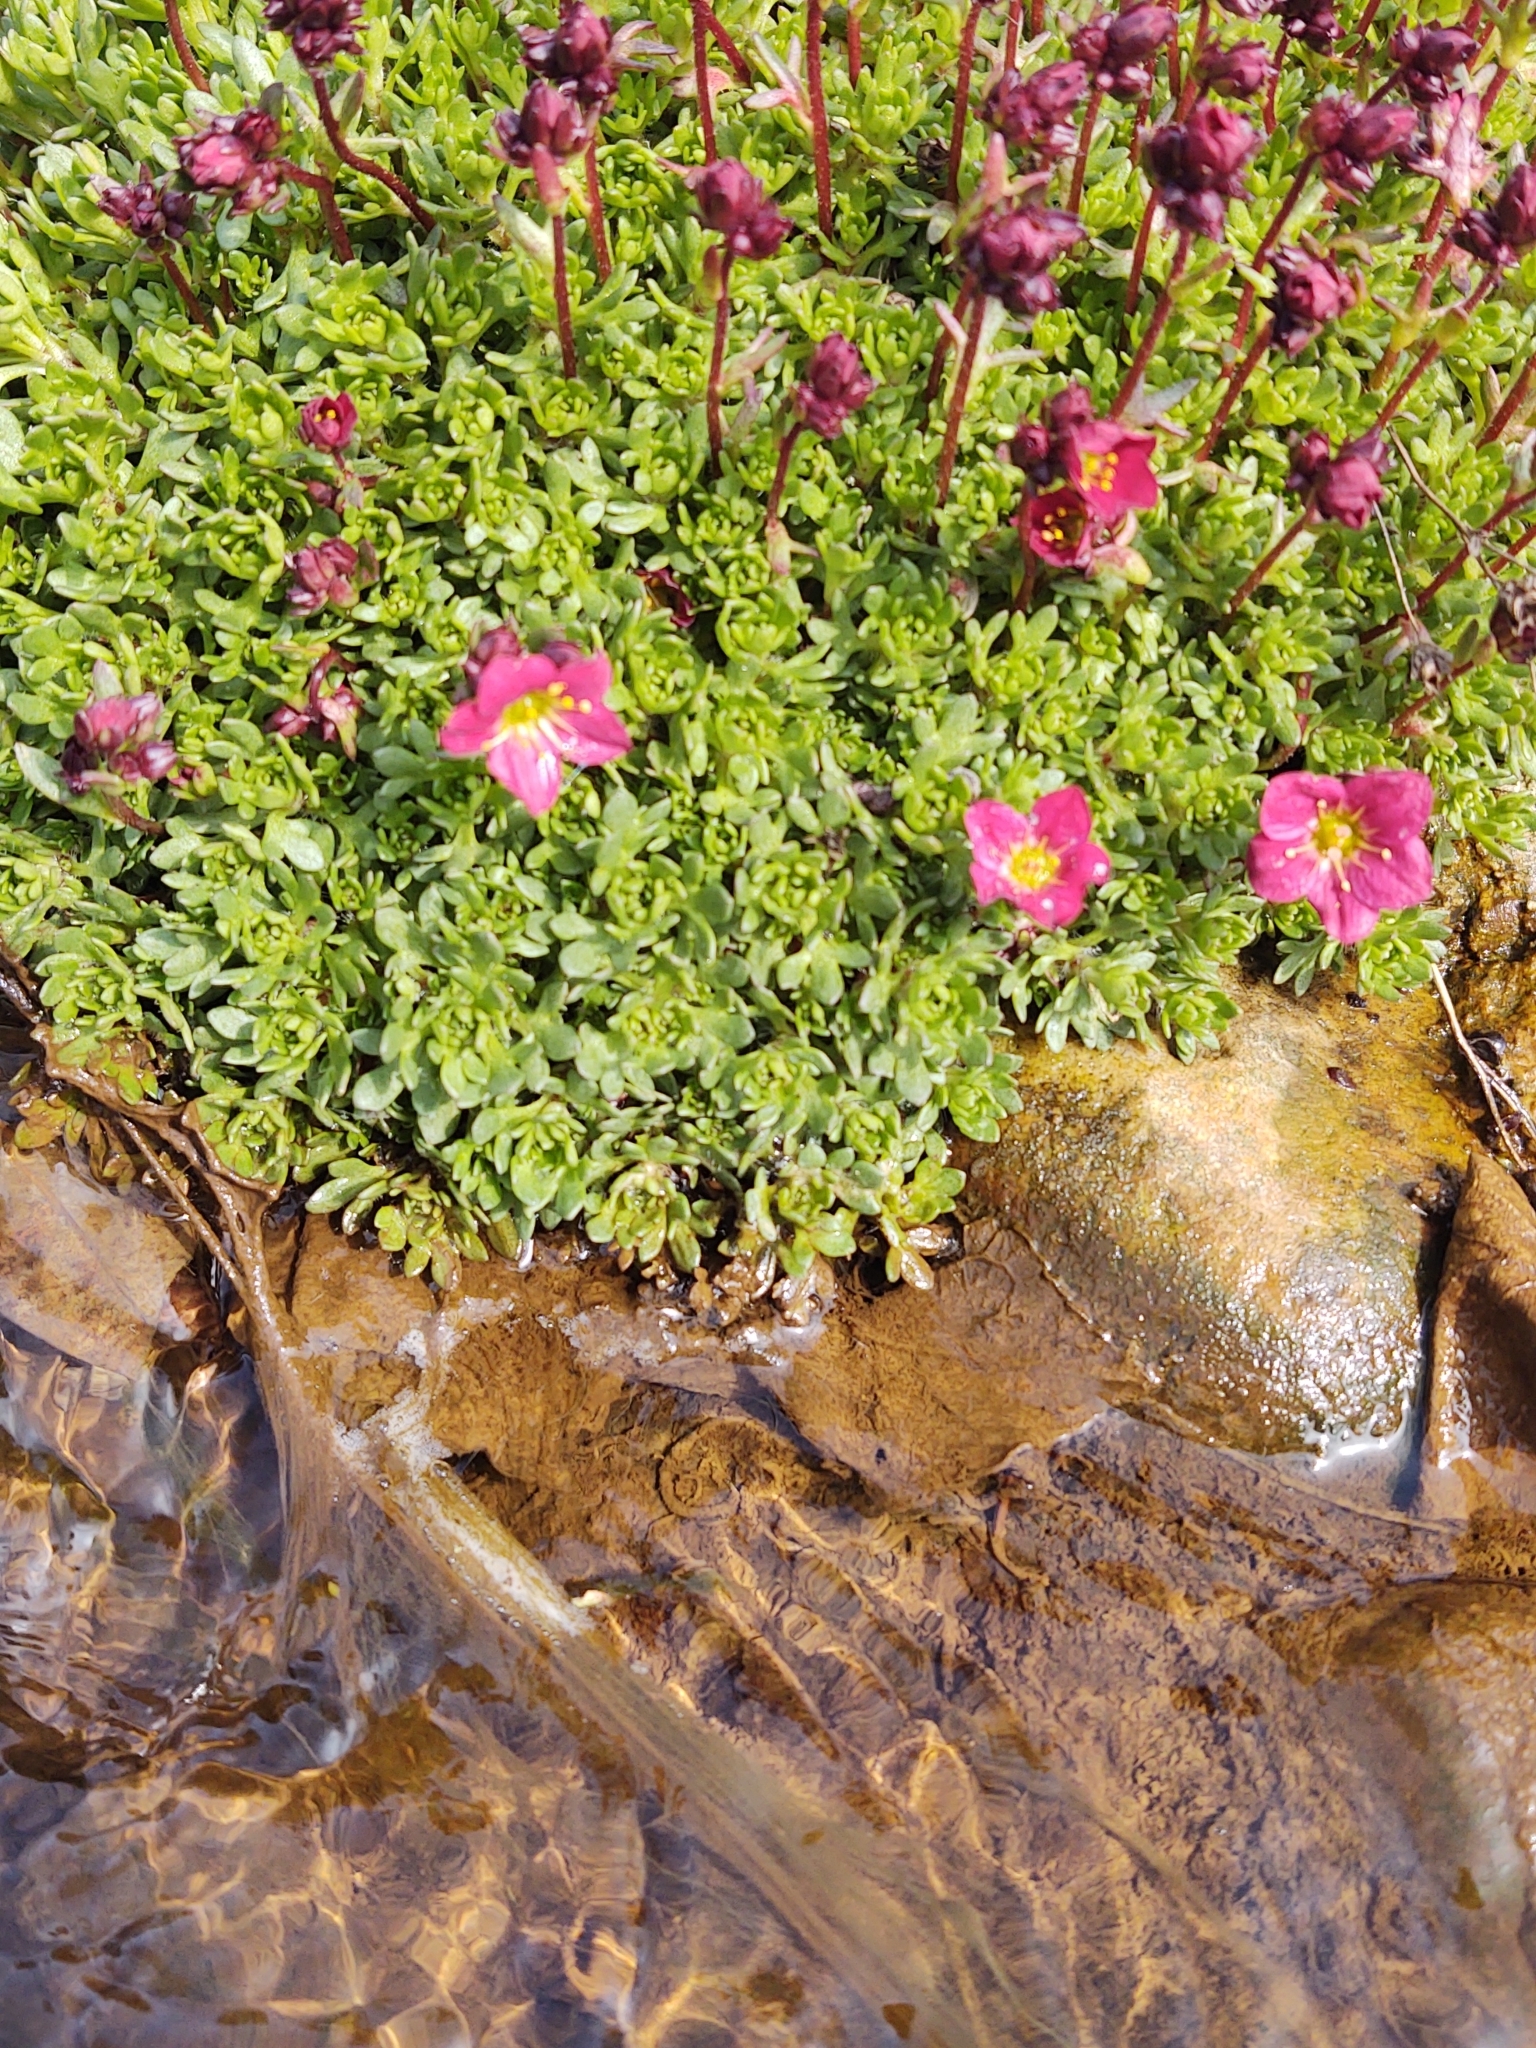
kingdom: Plantae
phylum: Tracheophyta
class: Magnoliopsida
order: Saxifragales
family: Saxifragaceae
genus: Saxifraga
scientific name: Saxifraga arendsii
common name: Garden mossy-saxifrage
